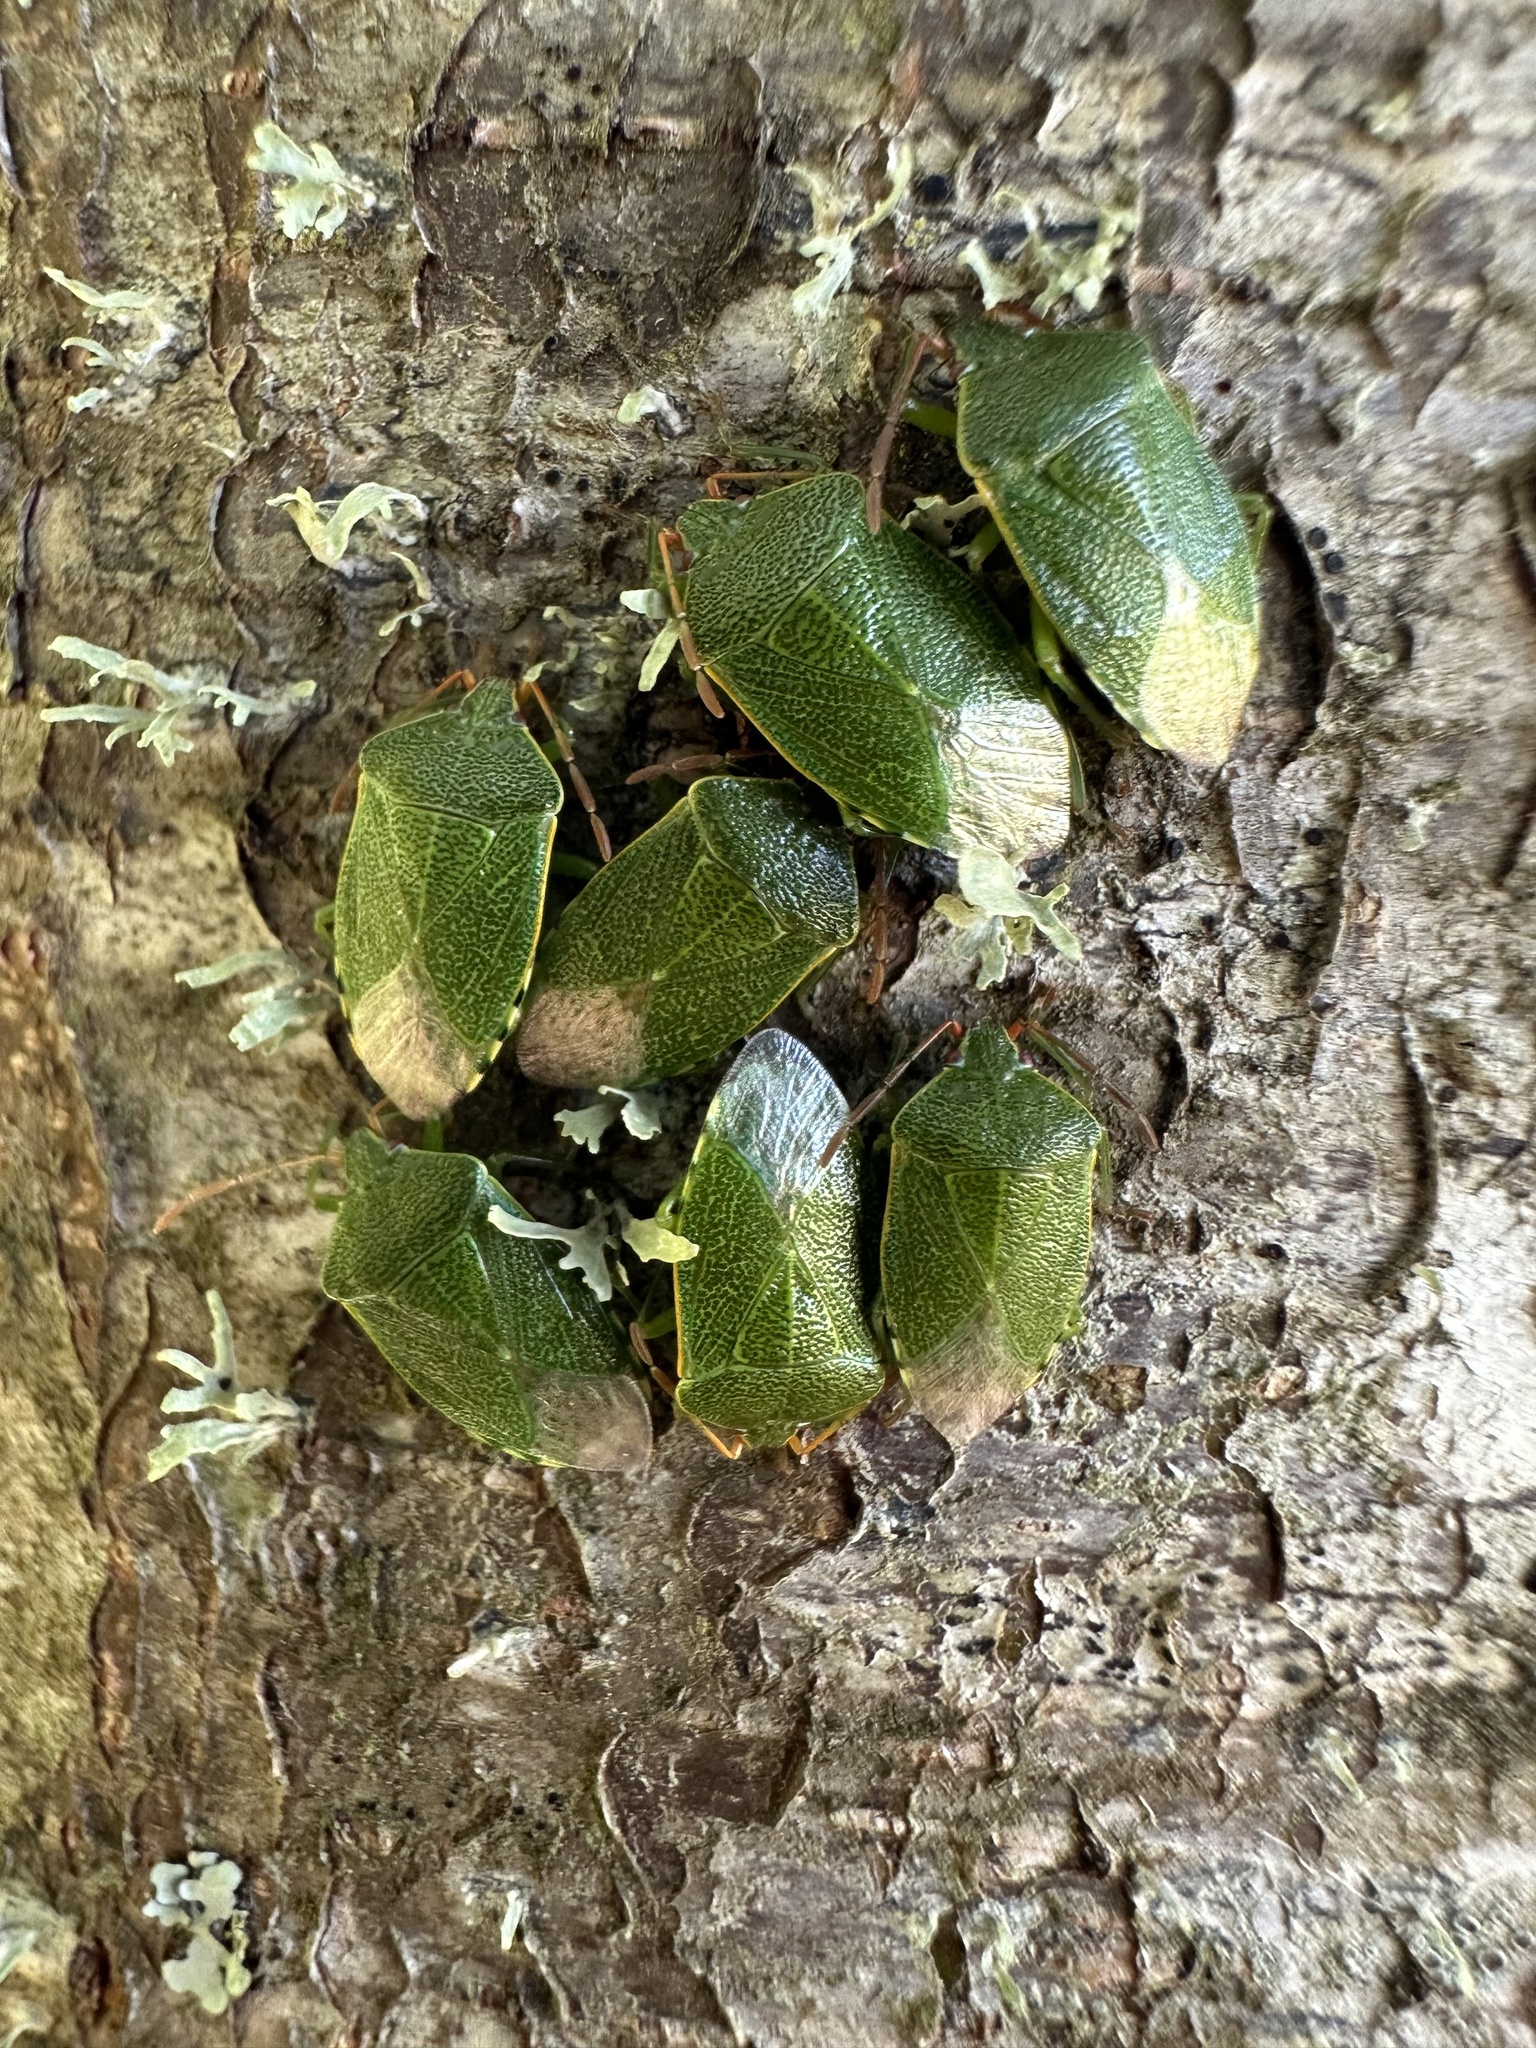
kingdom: Animalia
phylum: Arthropoda
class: Insecta
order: Hemiptera
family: Acanthosomatidae
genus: Sinopla
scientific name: Sinopla perpunctatus
